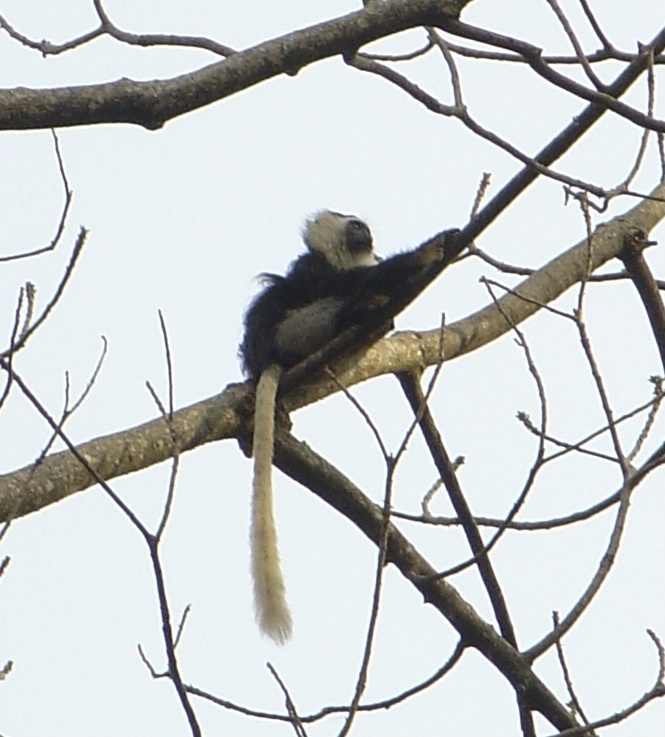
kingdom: Animalia
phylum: Chordata
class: Mammalia
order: Primates
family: Cercopithecidae
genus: Colobus
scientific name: Colobus vellerosus
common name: Ursine colobus
